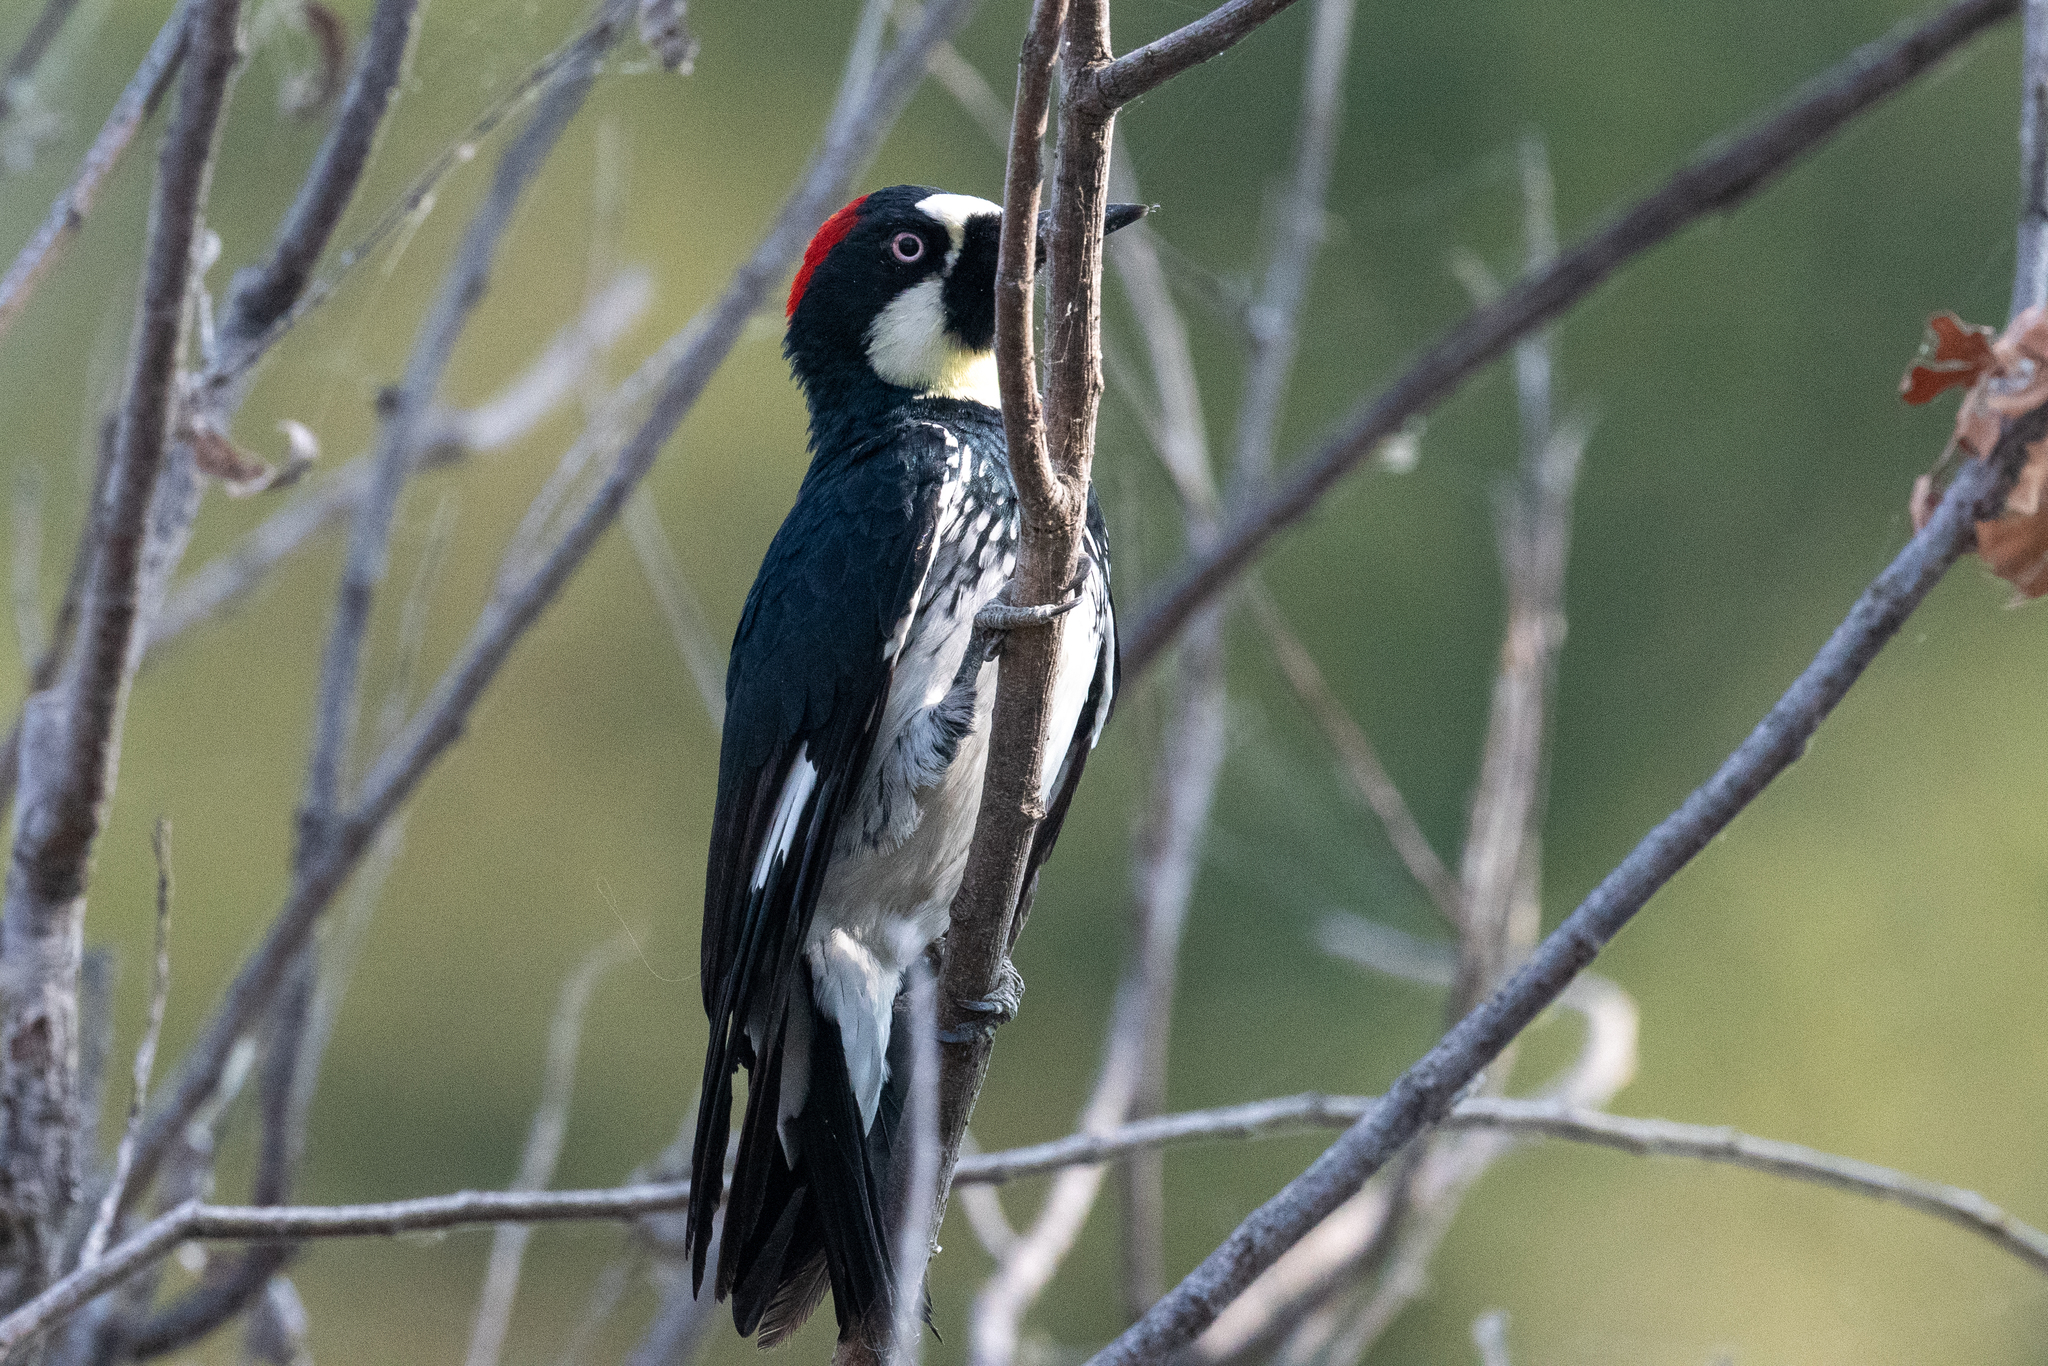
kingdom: Animalia
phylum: Chordata
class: Aves
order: Piciformes
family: Picidae
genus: Melanerpes
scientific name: Melanerpes formicivorus
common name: Acorn woodpecker
